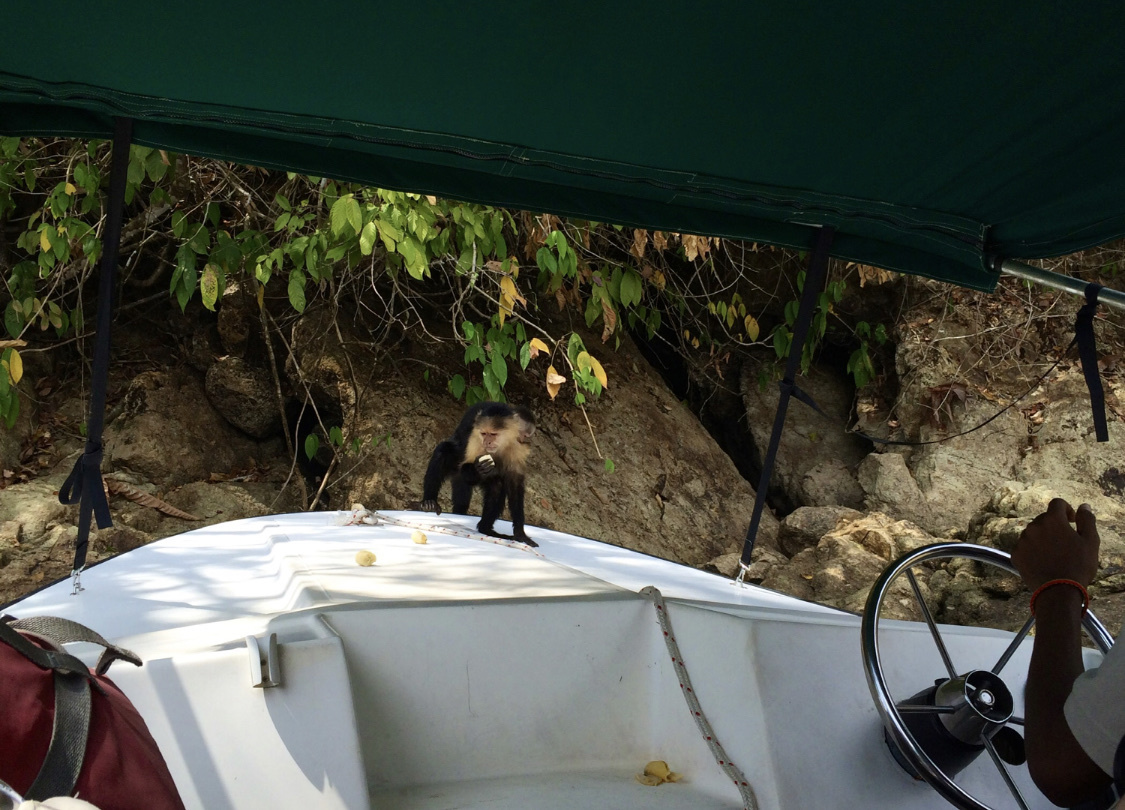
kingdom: Animalia
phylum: Chordata
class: Mammalia
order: Primates
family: Cebidae
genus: Cebus
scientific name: Cebus imitator
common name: Panamanian white-faced capuchin
